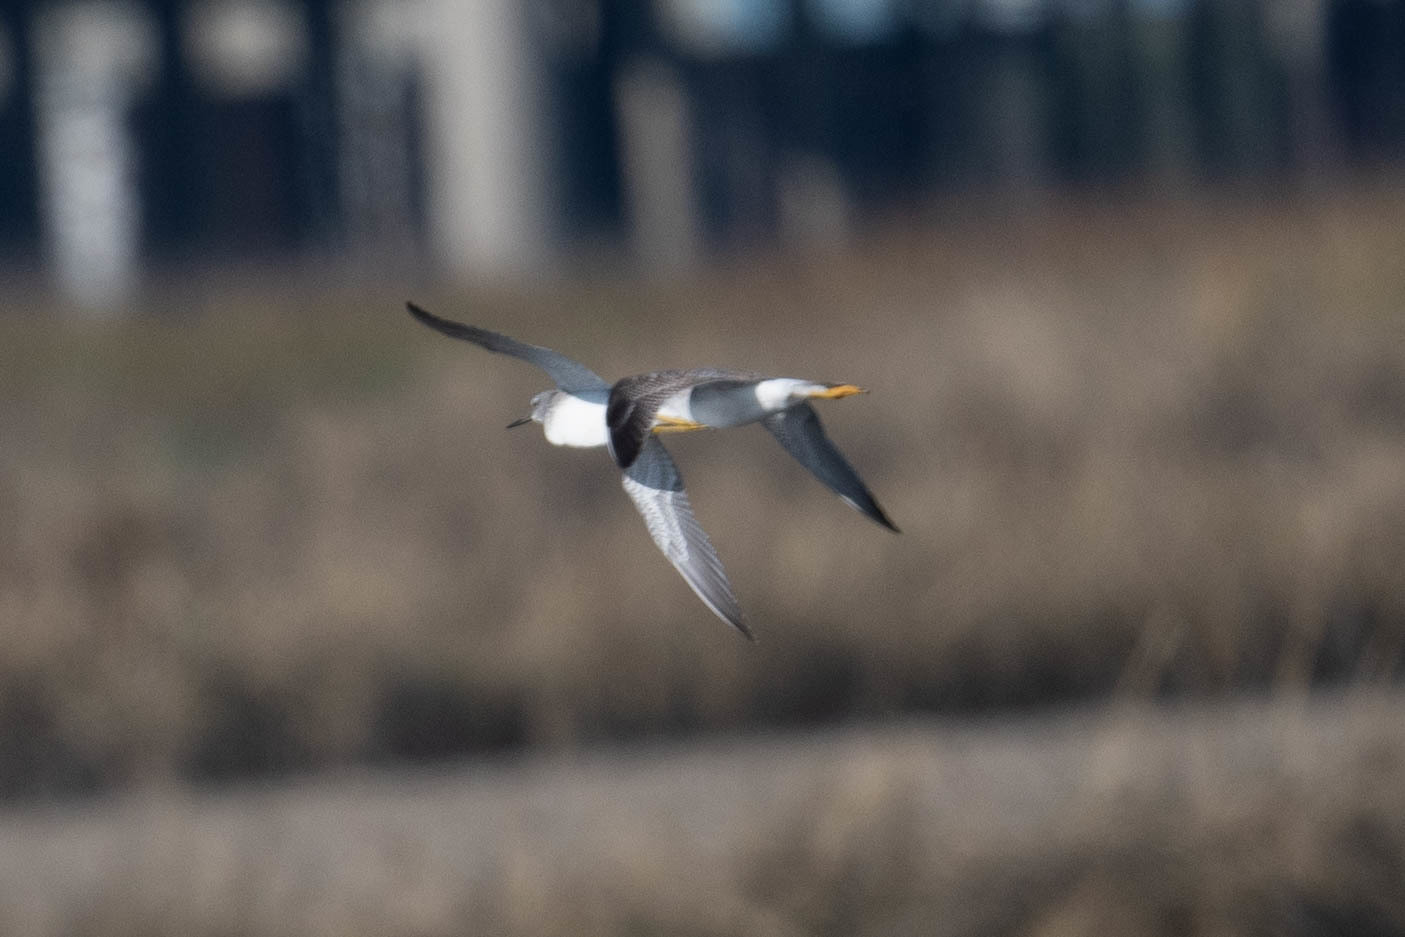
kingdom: Animalia
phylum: Chordata
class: Aves
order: Charadriiformes
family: Scolopacidae
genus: Tringa
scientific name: Tringa melanoleuca
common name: Greater yellowlegs
